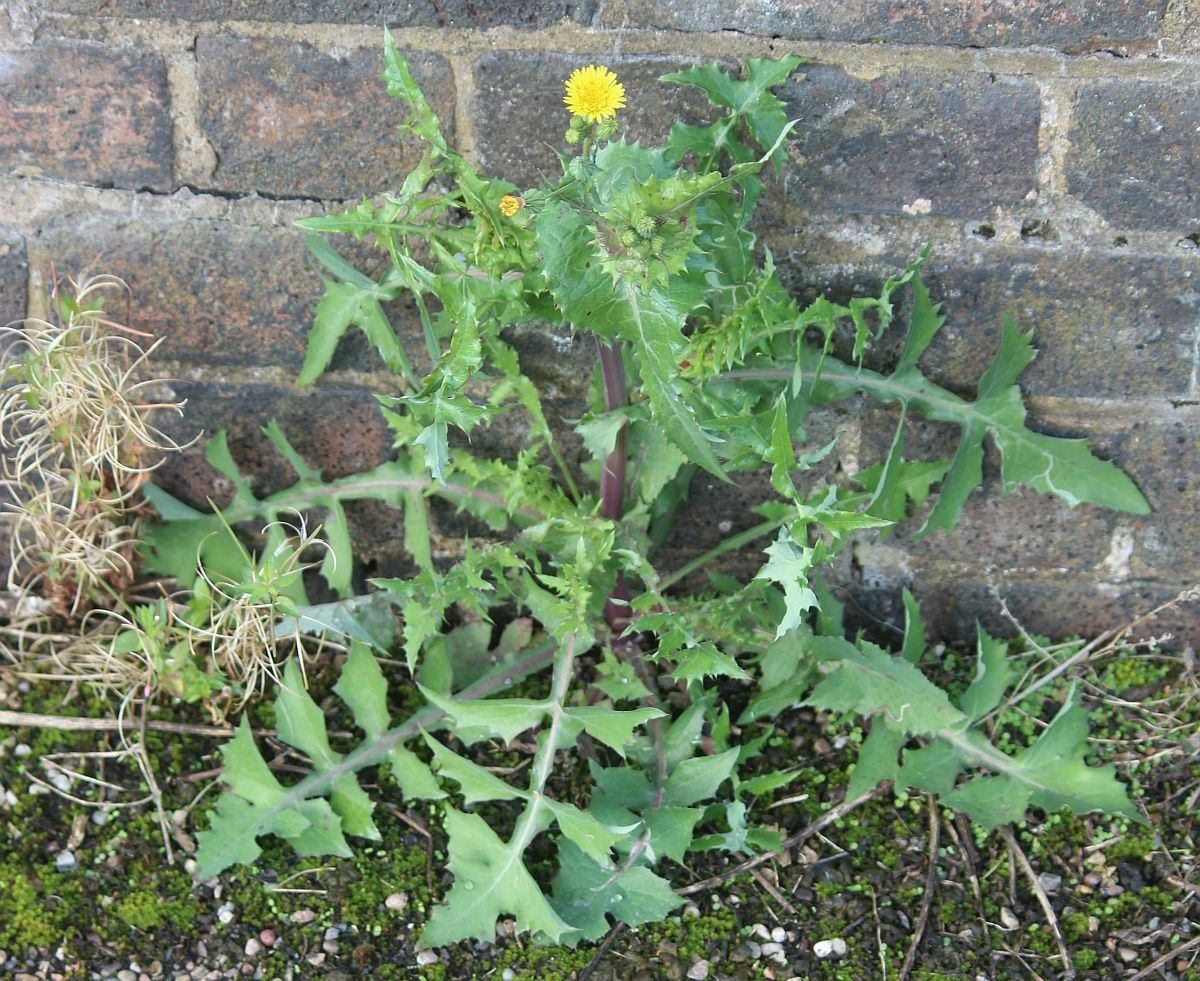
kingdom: Plantae
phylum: Tracheophyta
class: Magnoliopsida
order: Asterales
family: Asteraceae
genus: Sonchus
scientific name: Sonchus oleraceus
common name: Common sowthistle
